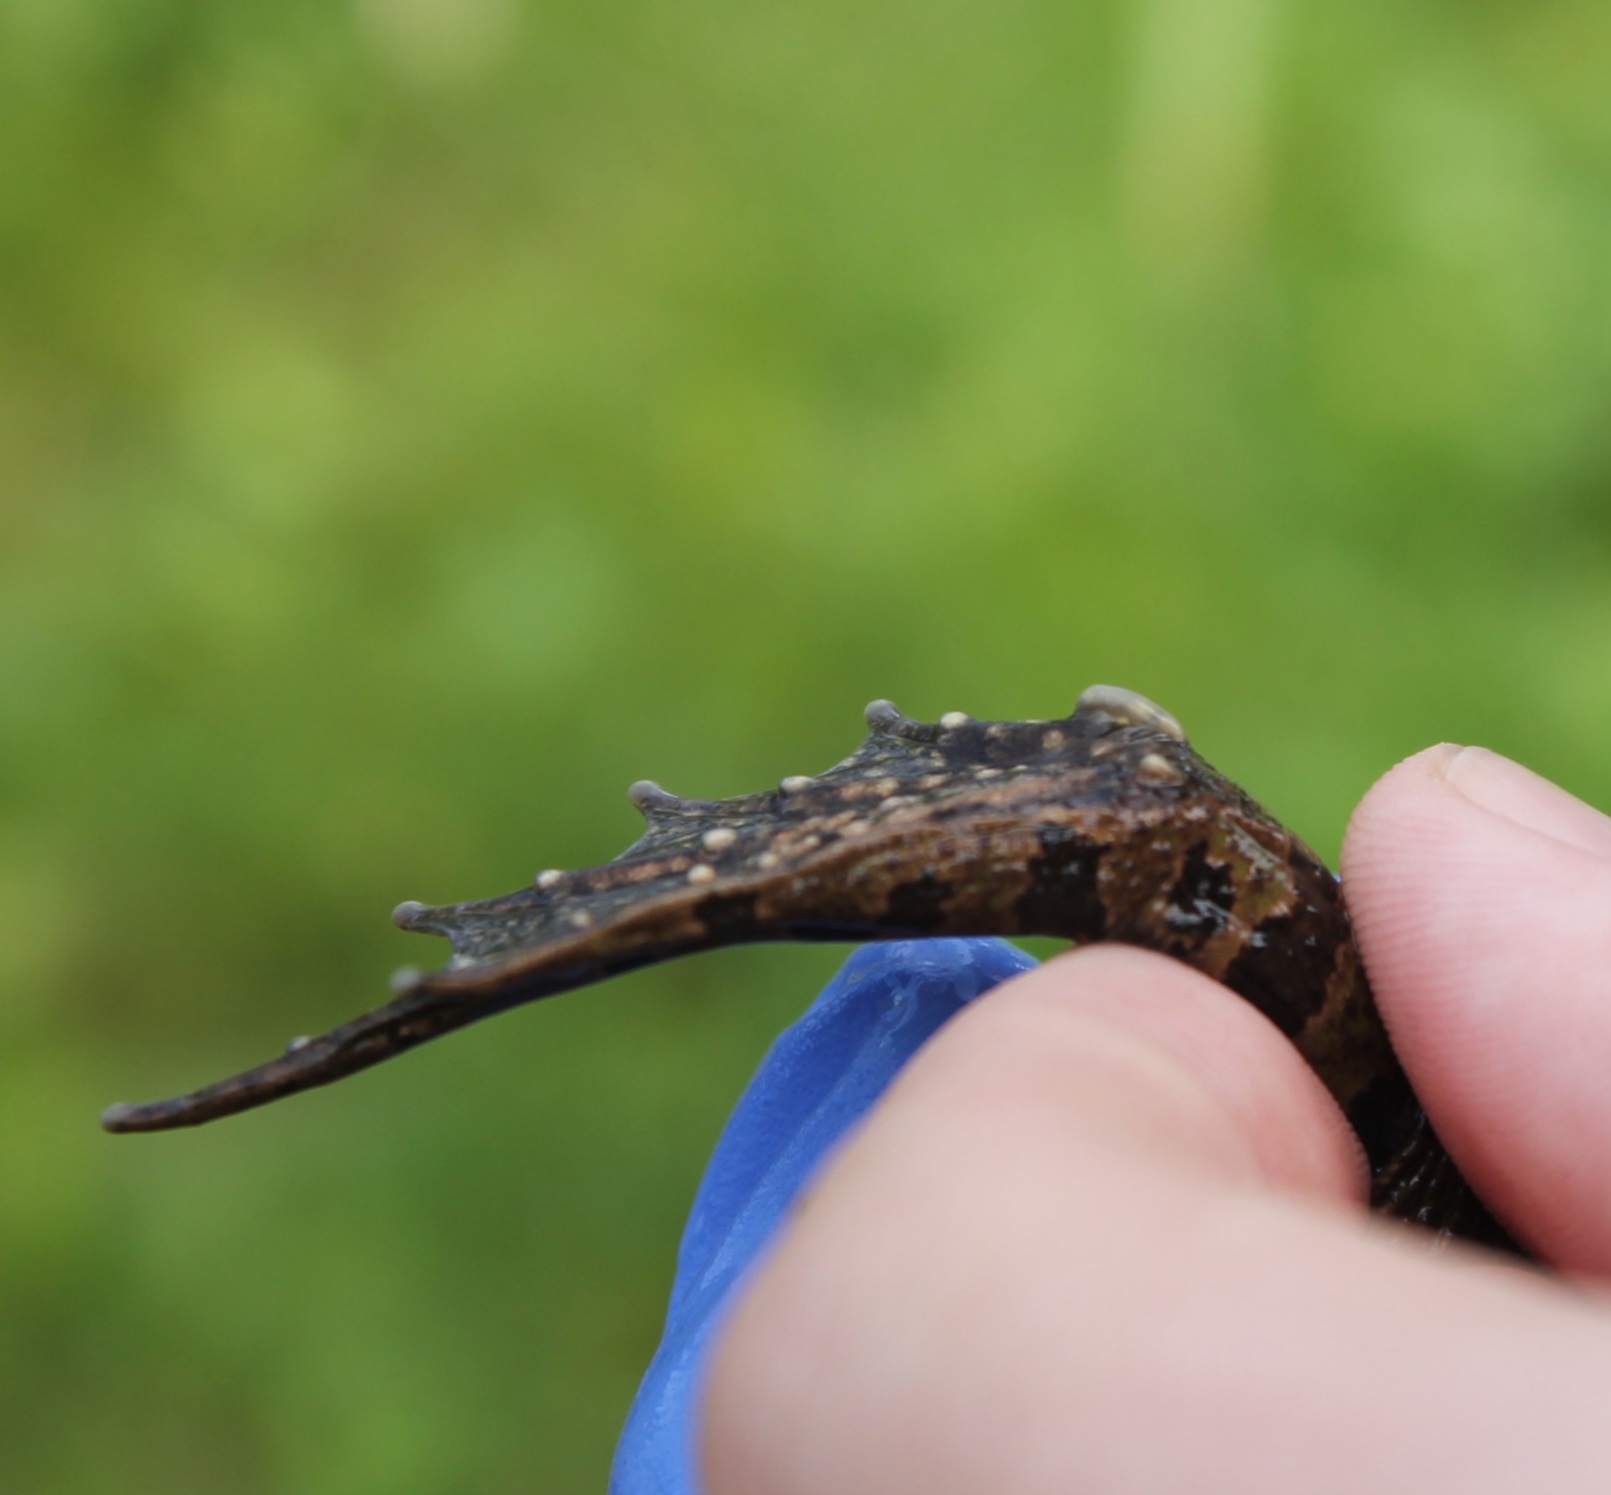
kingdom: Animalia
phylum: Chordata
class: Amphibia
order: Anura
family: Ranidae
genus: Pelophylax
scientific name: Pelophylax ridibundus
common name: Marsh frog
